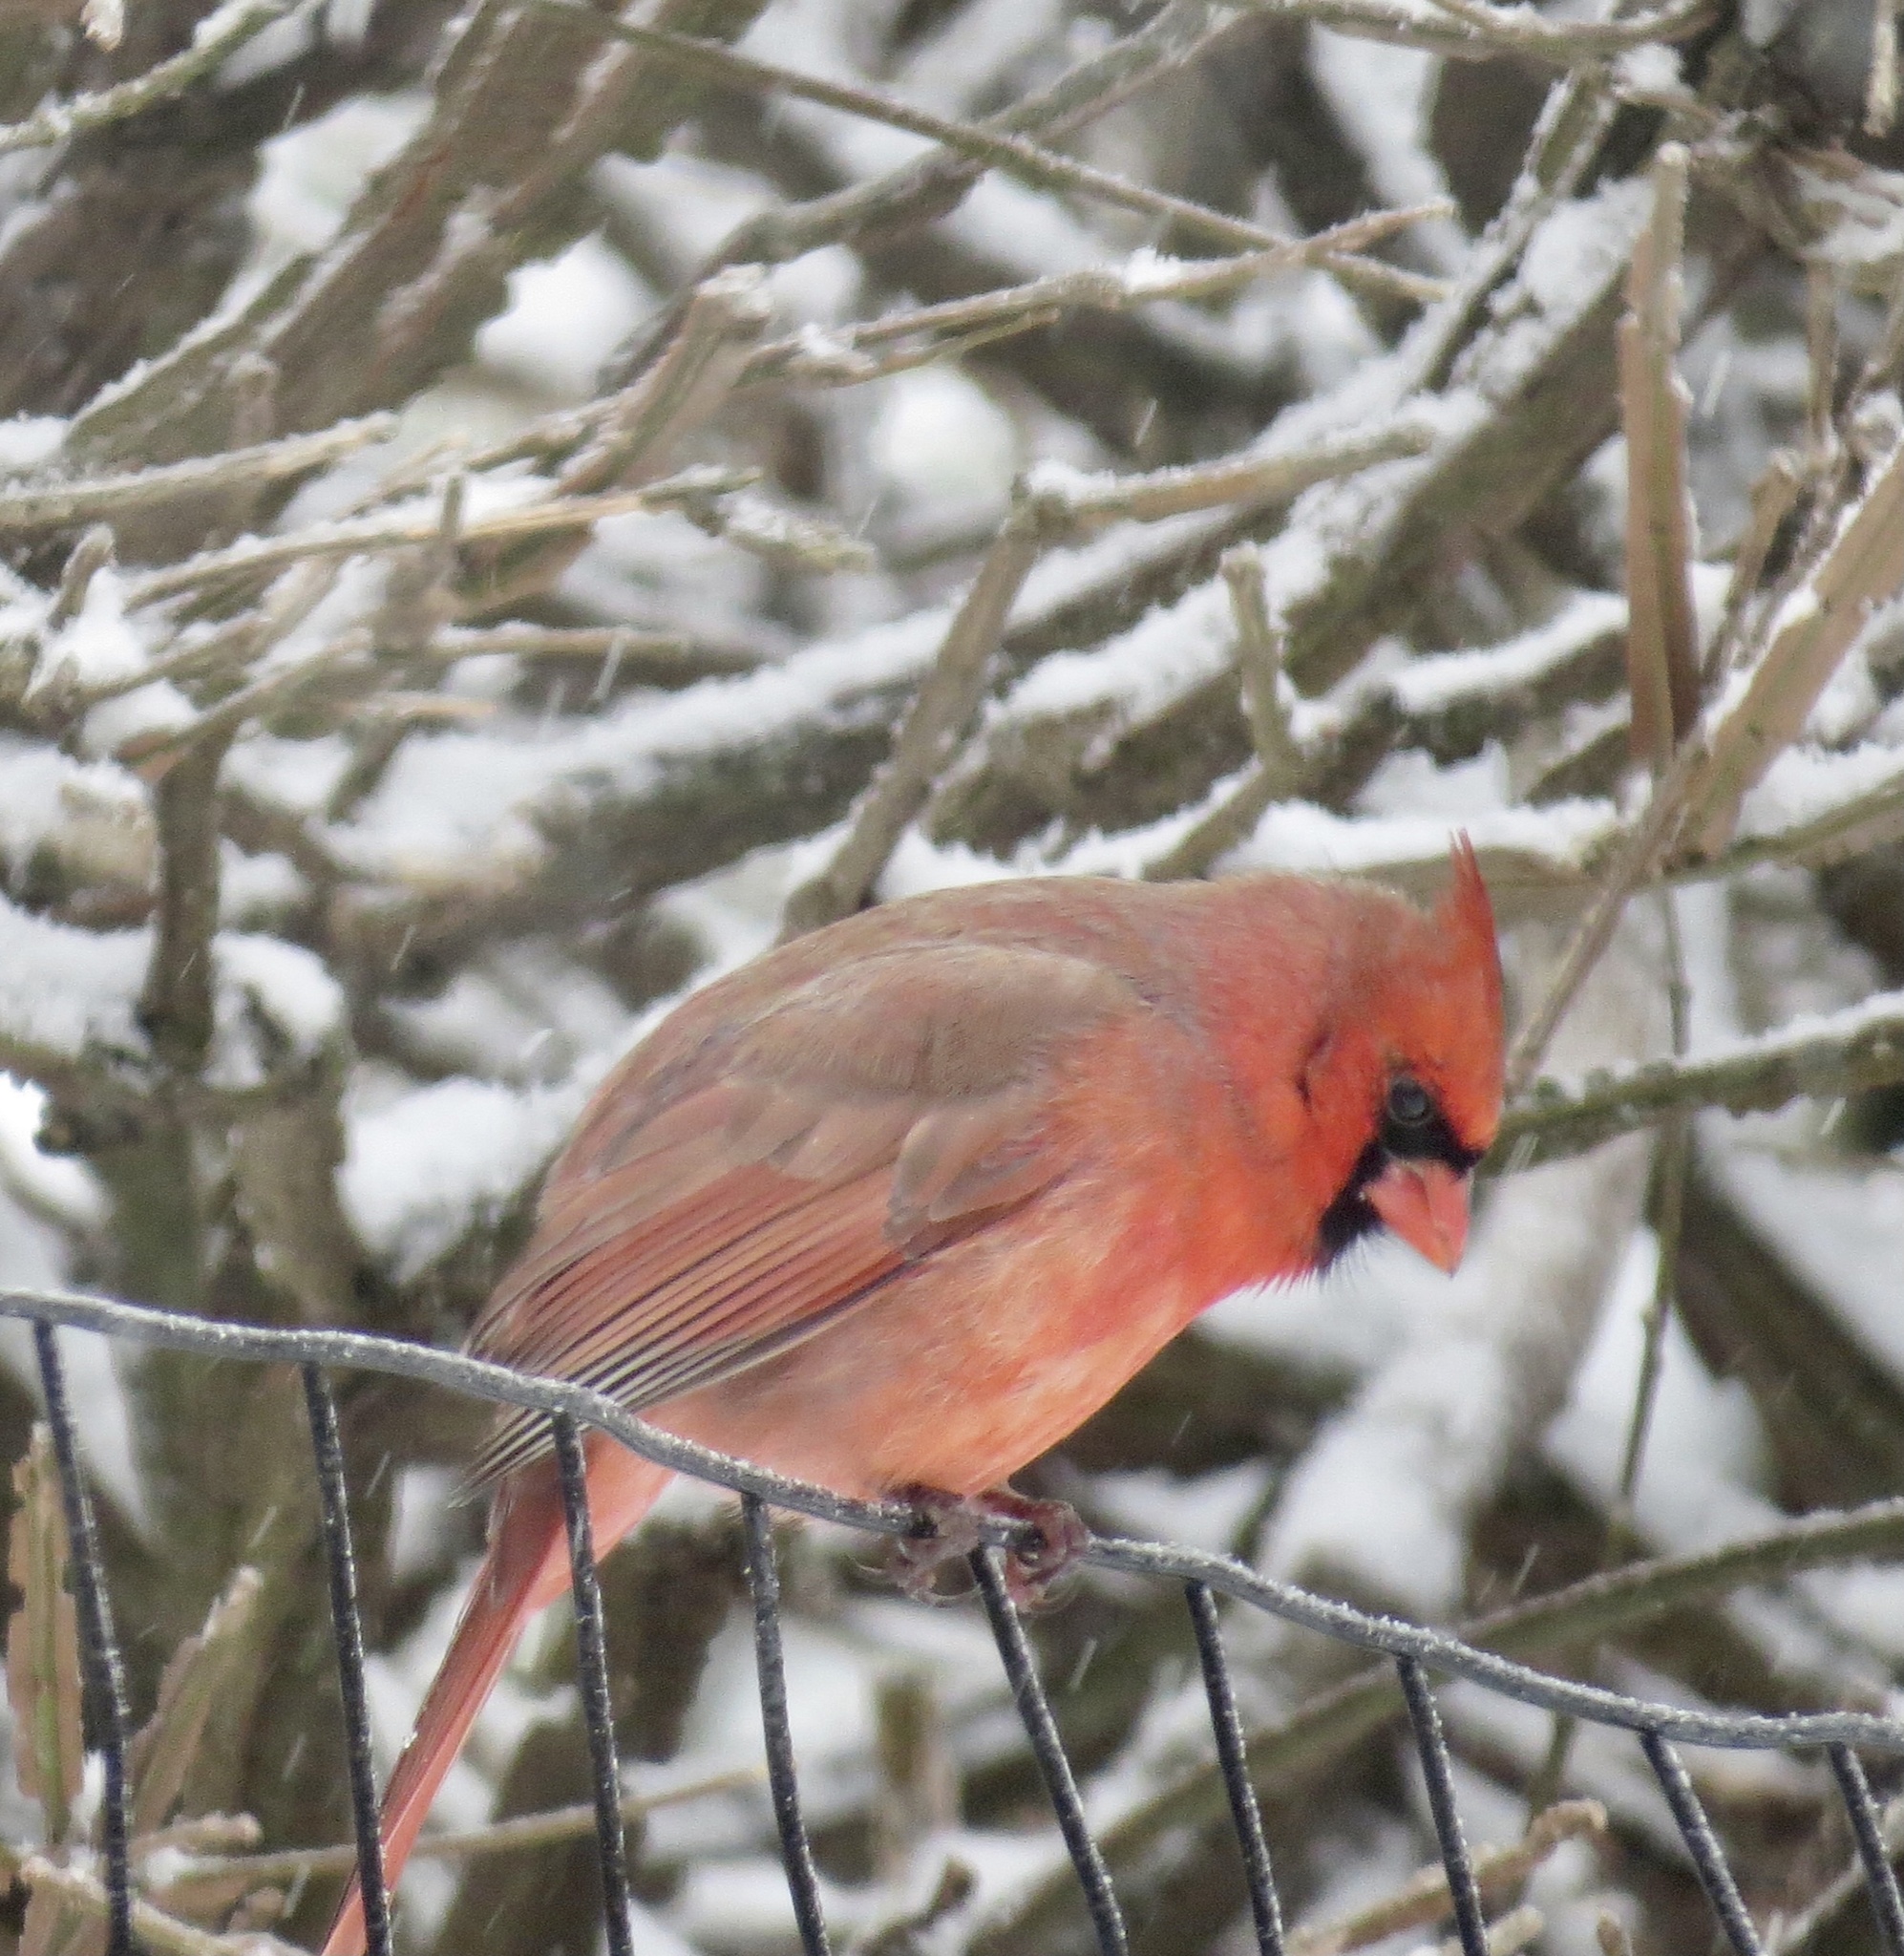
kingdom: Animalia
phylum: Chordata
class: Aves
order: Passeriformes
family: Cardinalidae
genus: Cardinalis
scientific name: Cardinalis cardinalis
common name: Northern cardinal
